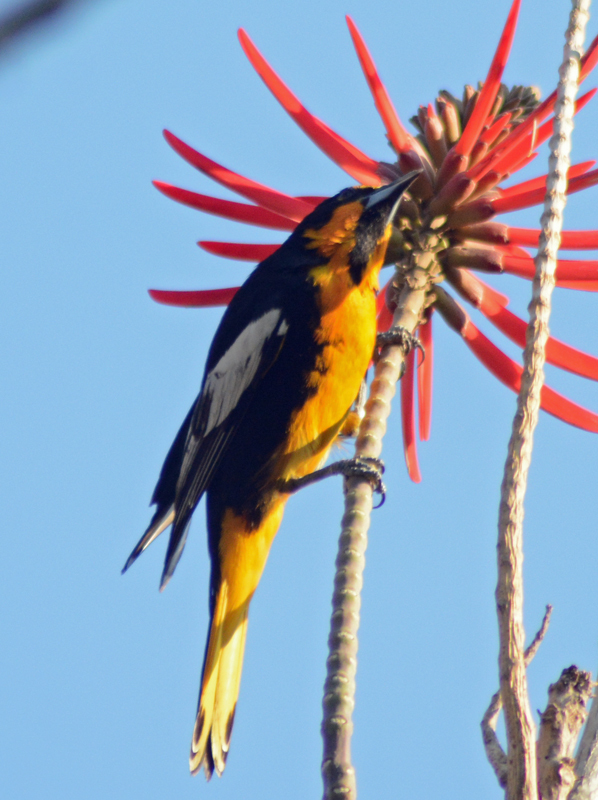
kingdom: Animalia
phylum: Chordata
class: Aves
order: Passeriformes
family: Icteridae
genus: Icterus
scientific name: Icterus abeillei
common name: Black-backed oriole
